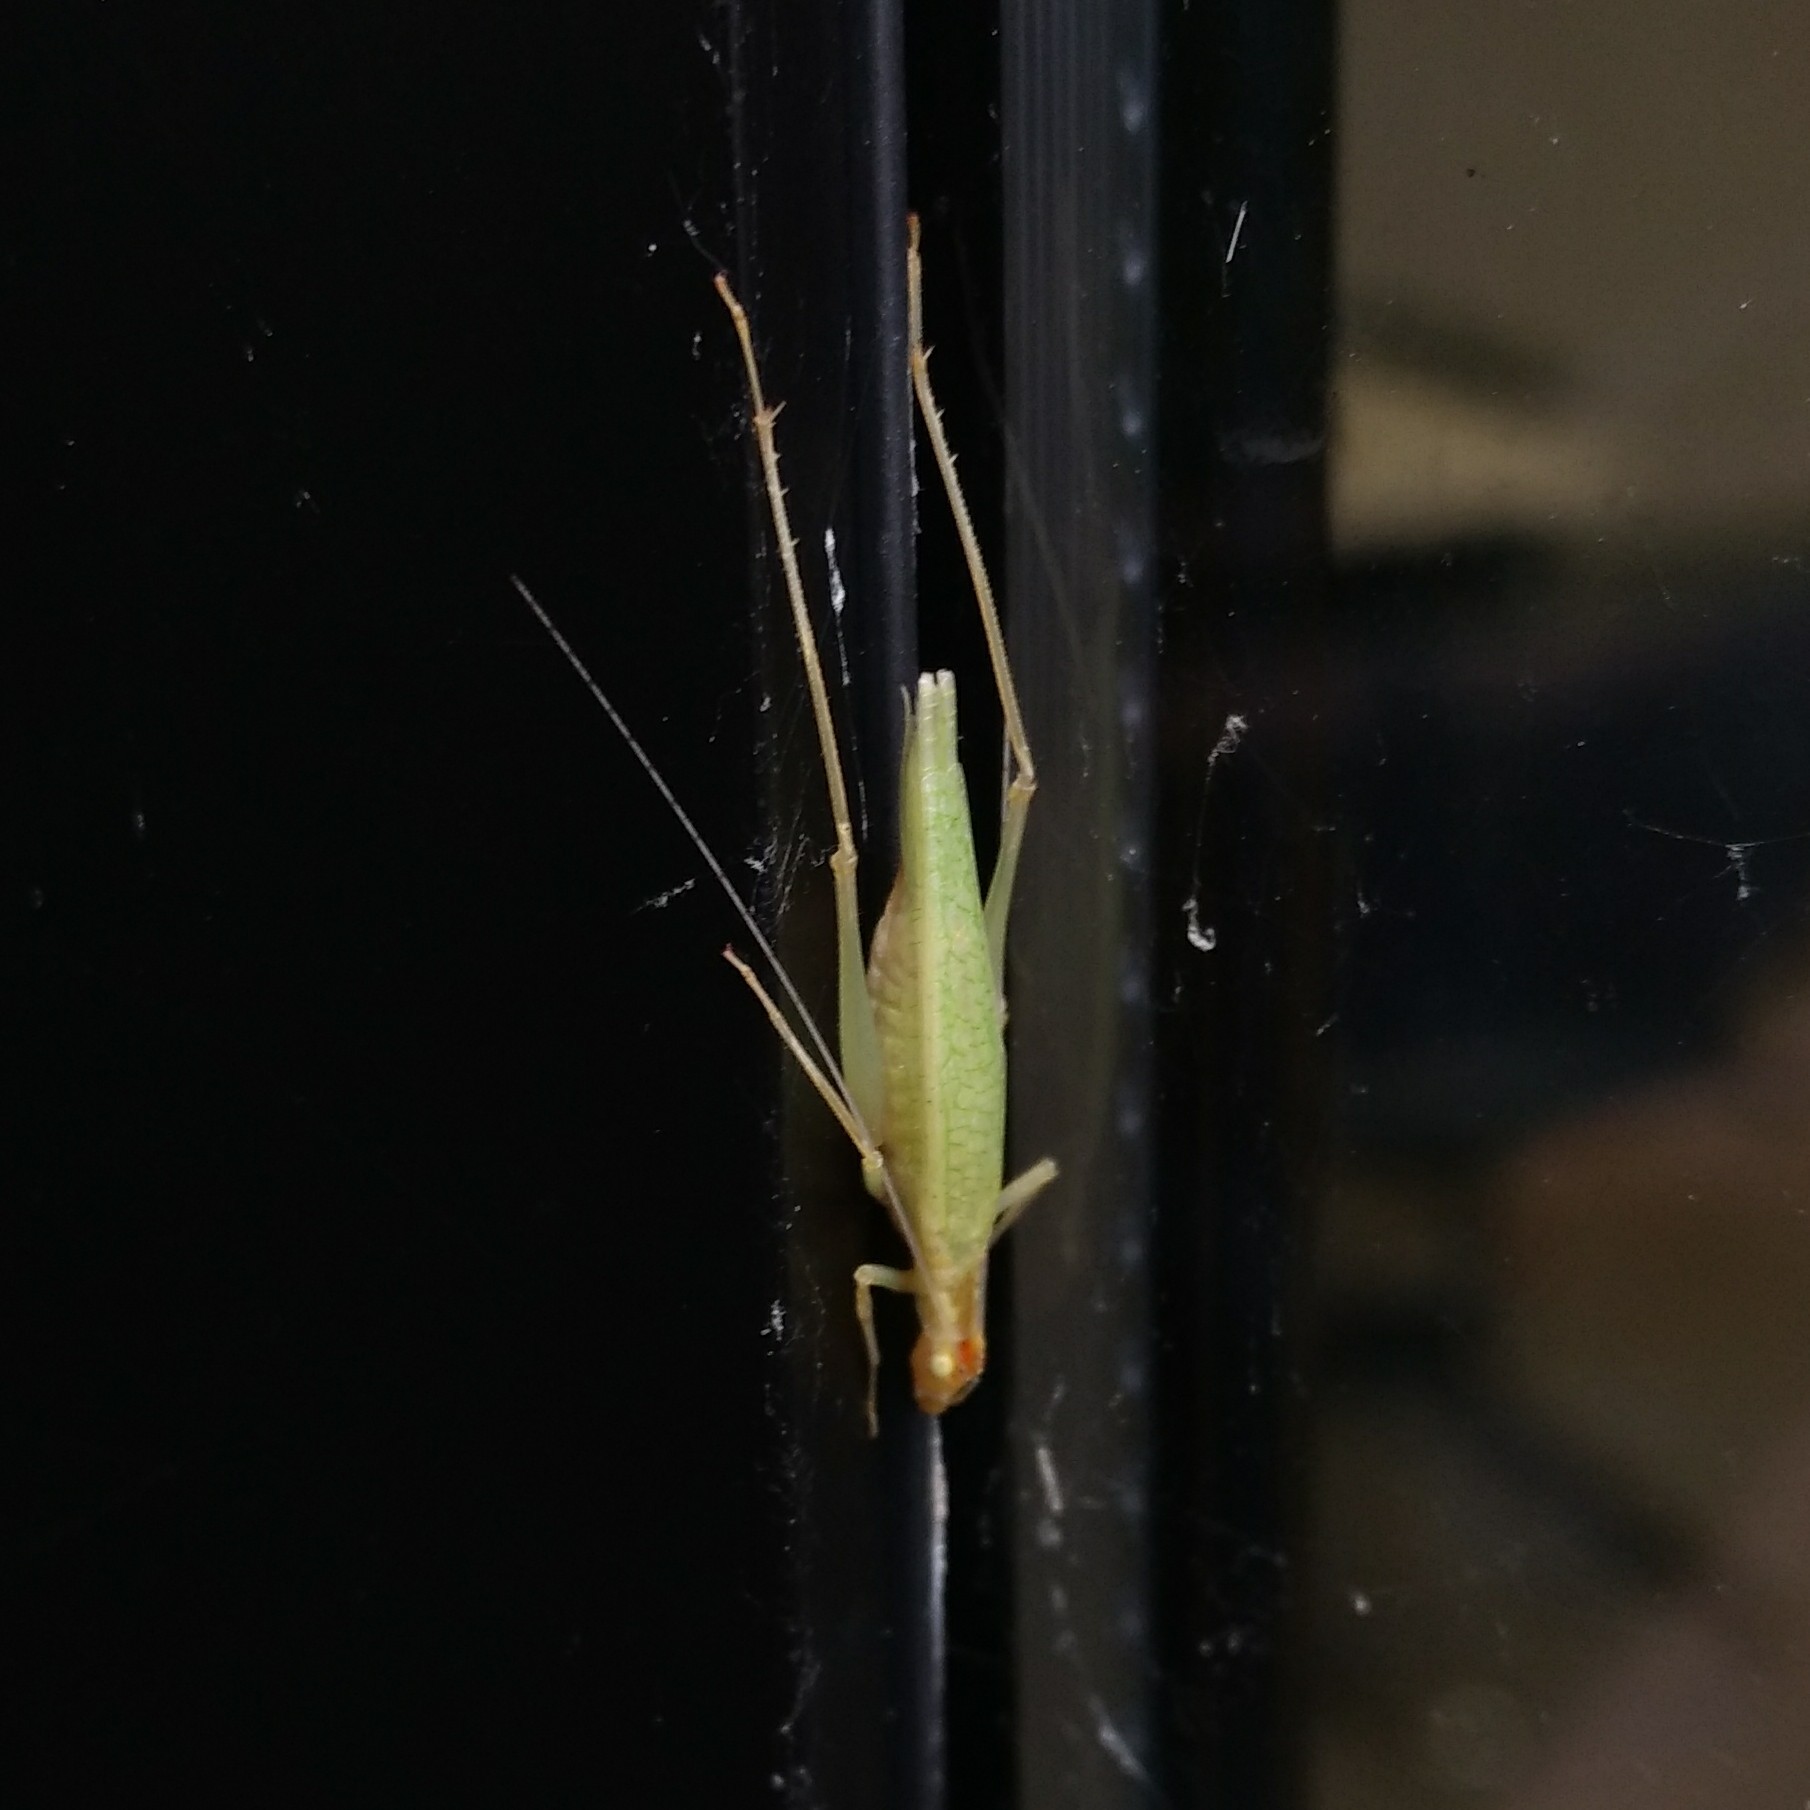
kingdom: Animalia
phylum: Arthropoda
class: Insecta
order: Orthoptera
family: Gryllidae
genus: Oecanthus
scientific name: Oecanthus niveus
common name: Narrow-winged tree cricket
